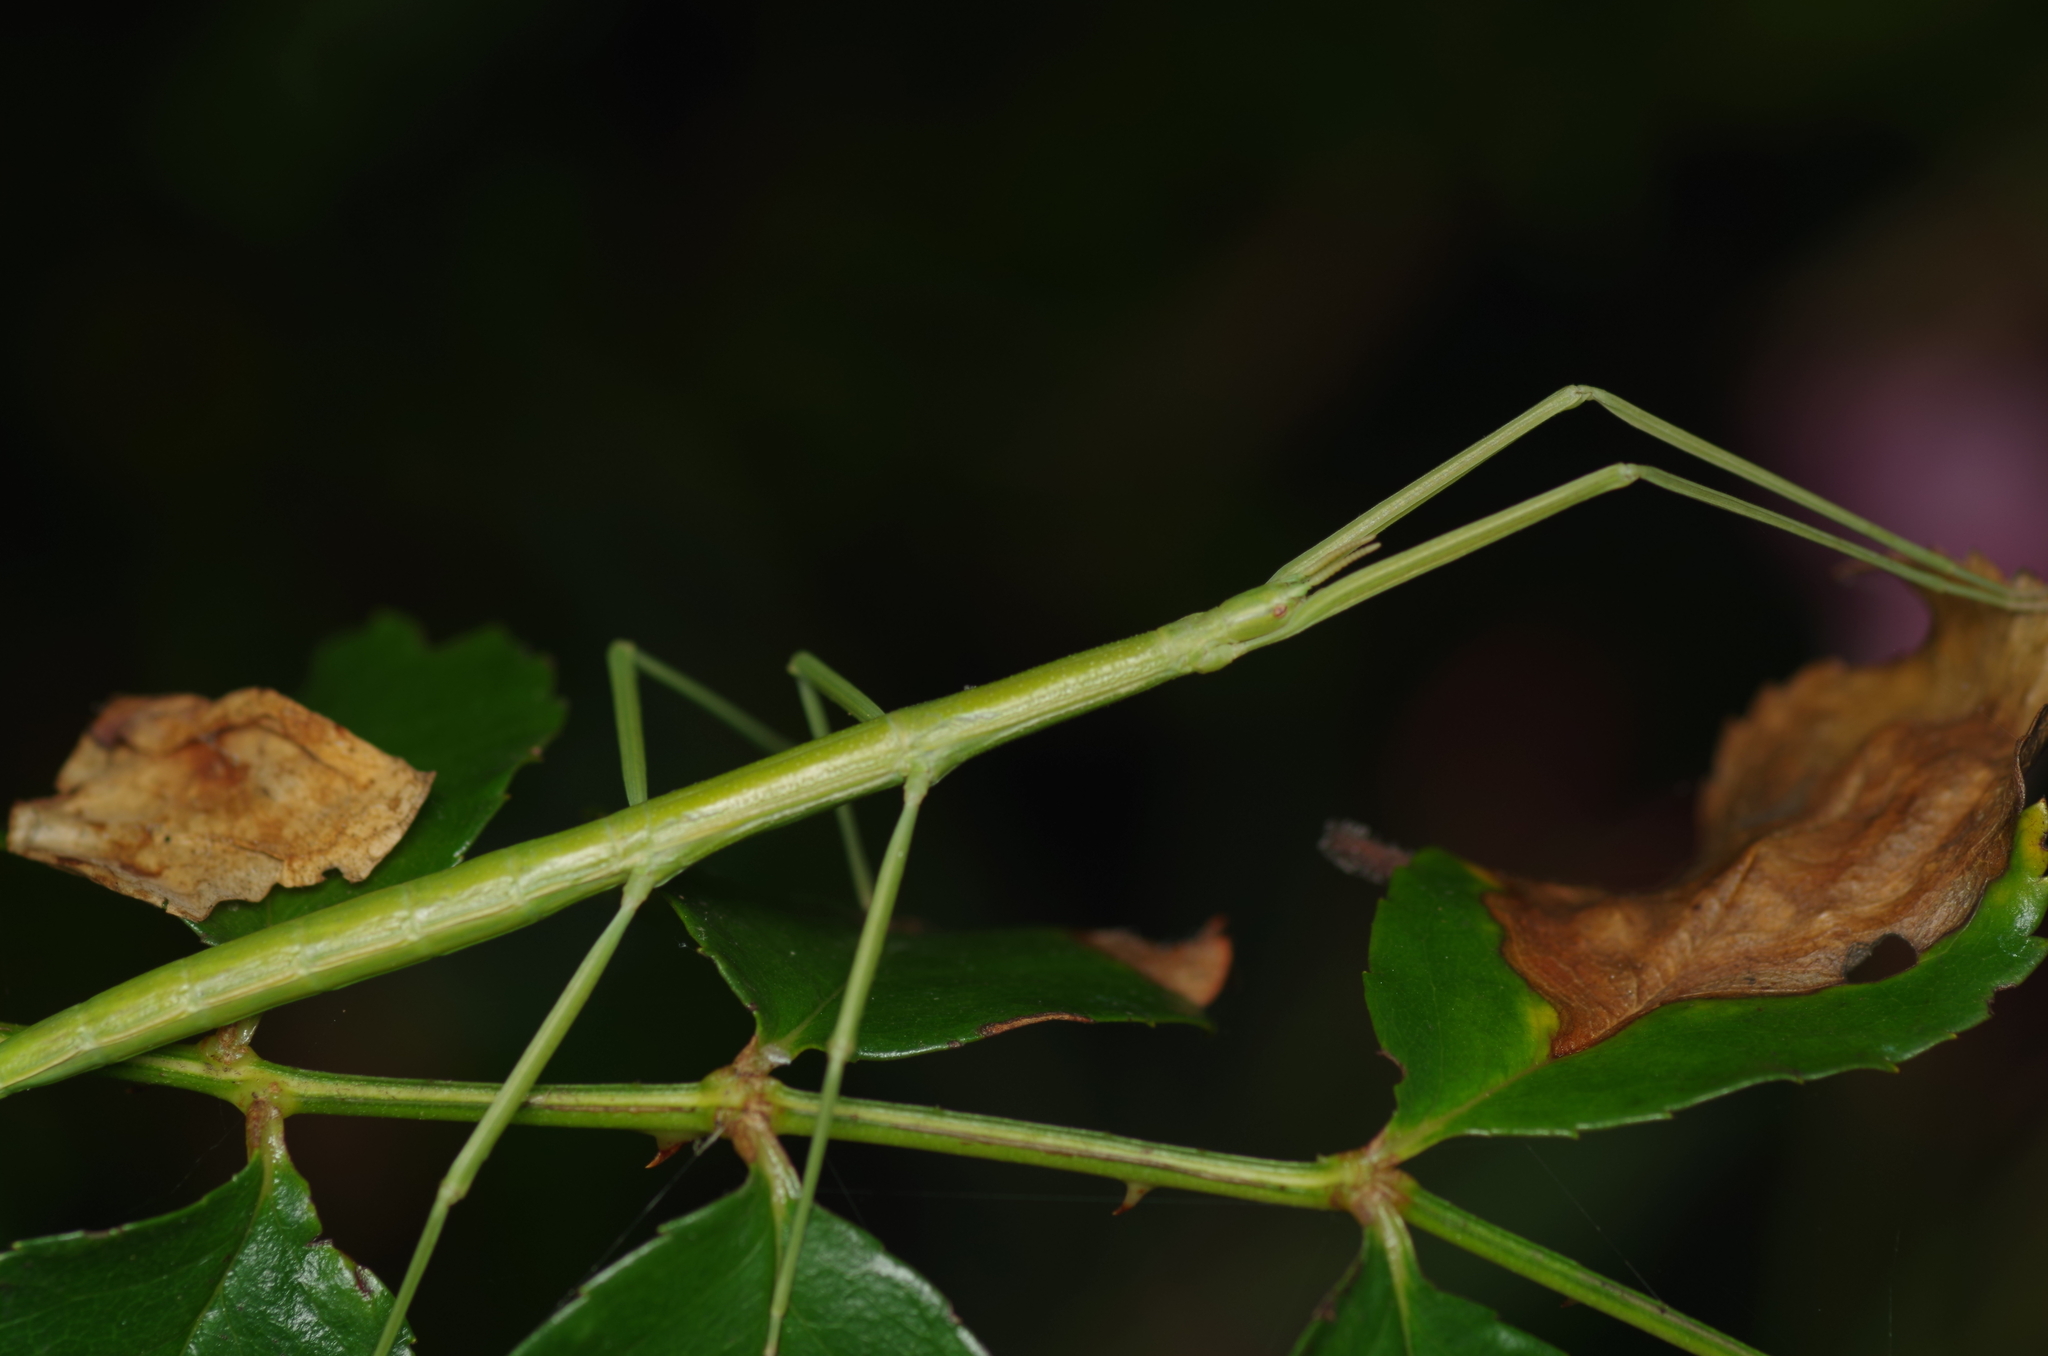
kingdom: Animalia
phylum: Arthropoda
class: Insecta
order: Phasmida
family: Bacillidae
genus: Clonopsis
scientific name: Clonopsis gallica
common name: French stick insect
